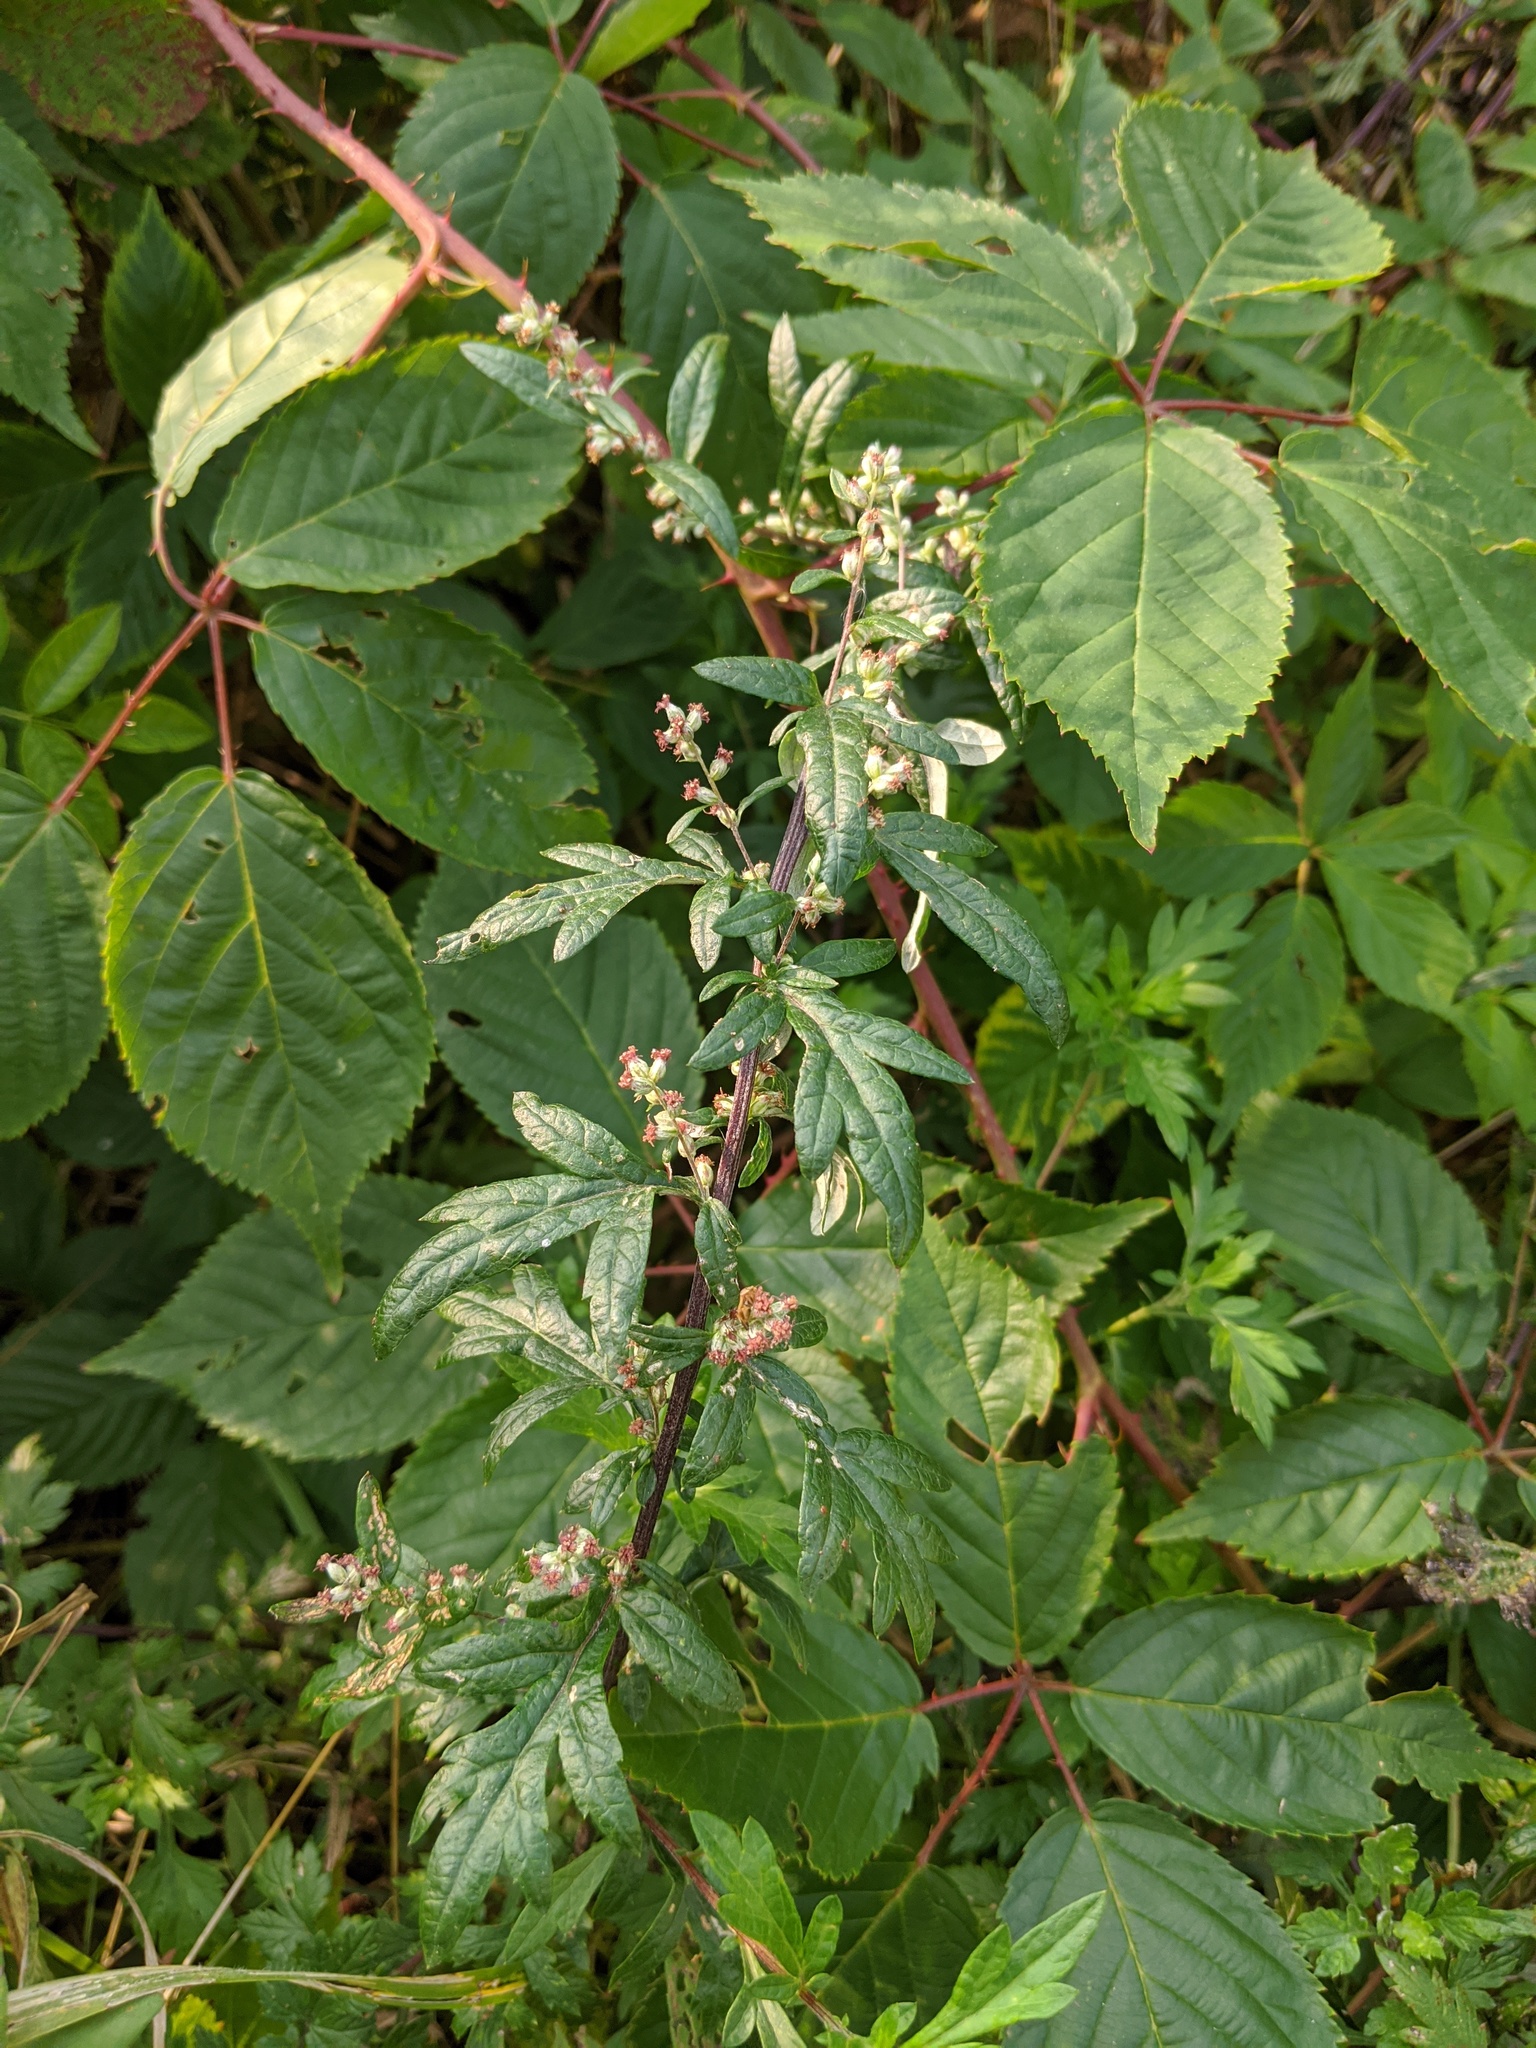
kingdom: Plantae
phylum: Tracheophyta
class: Magnoliopsida
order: Asterales
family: Asteraceae
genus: Artemisia
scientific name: Artemisia vulgaris
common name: Mugwort
